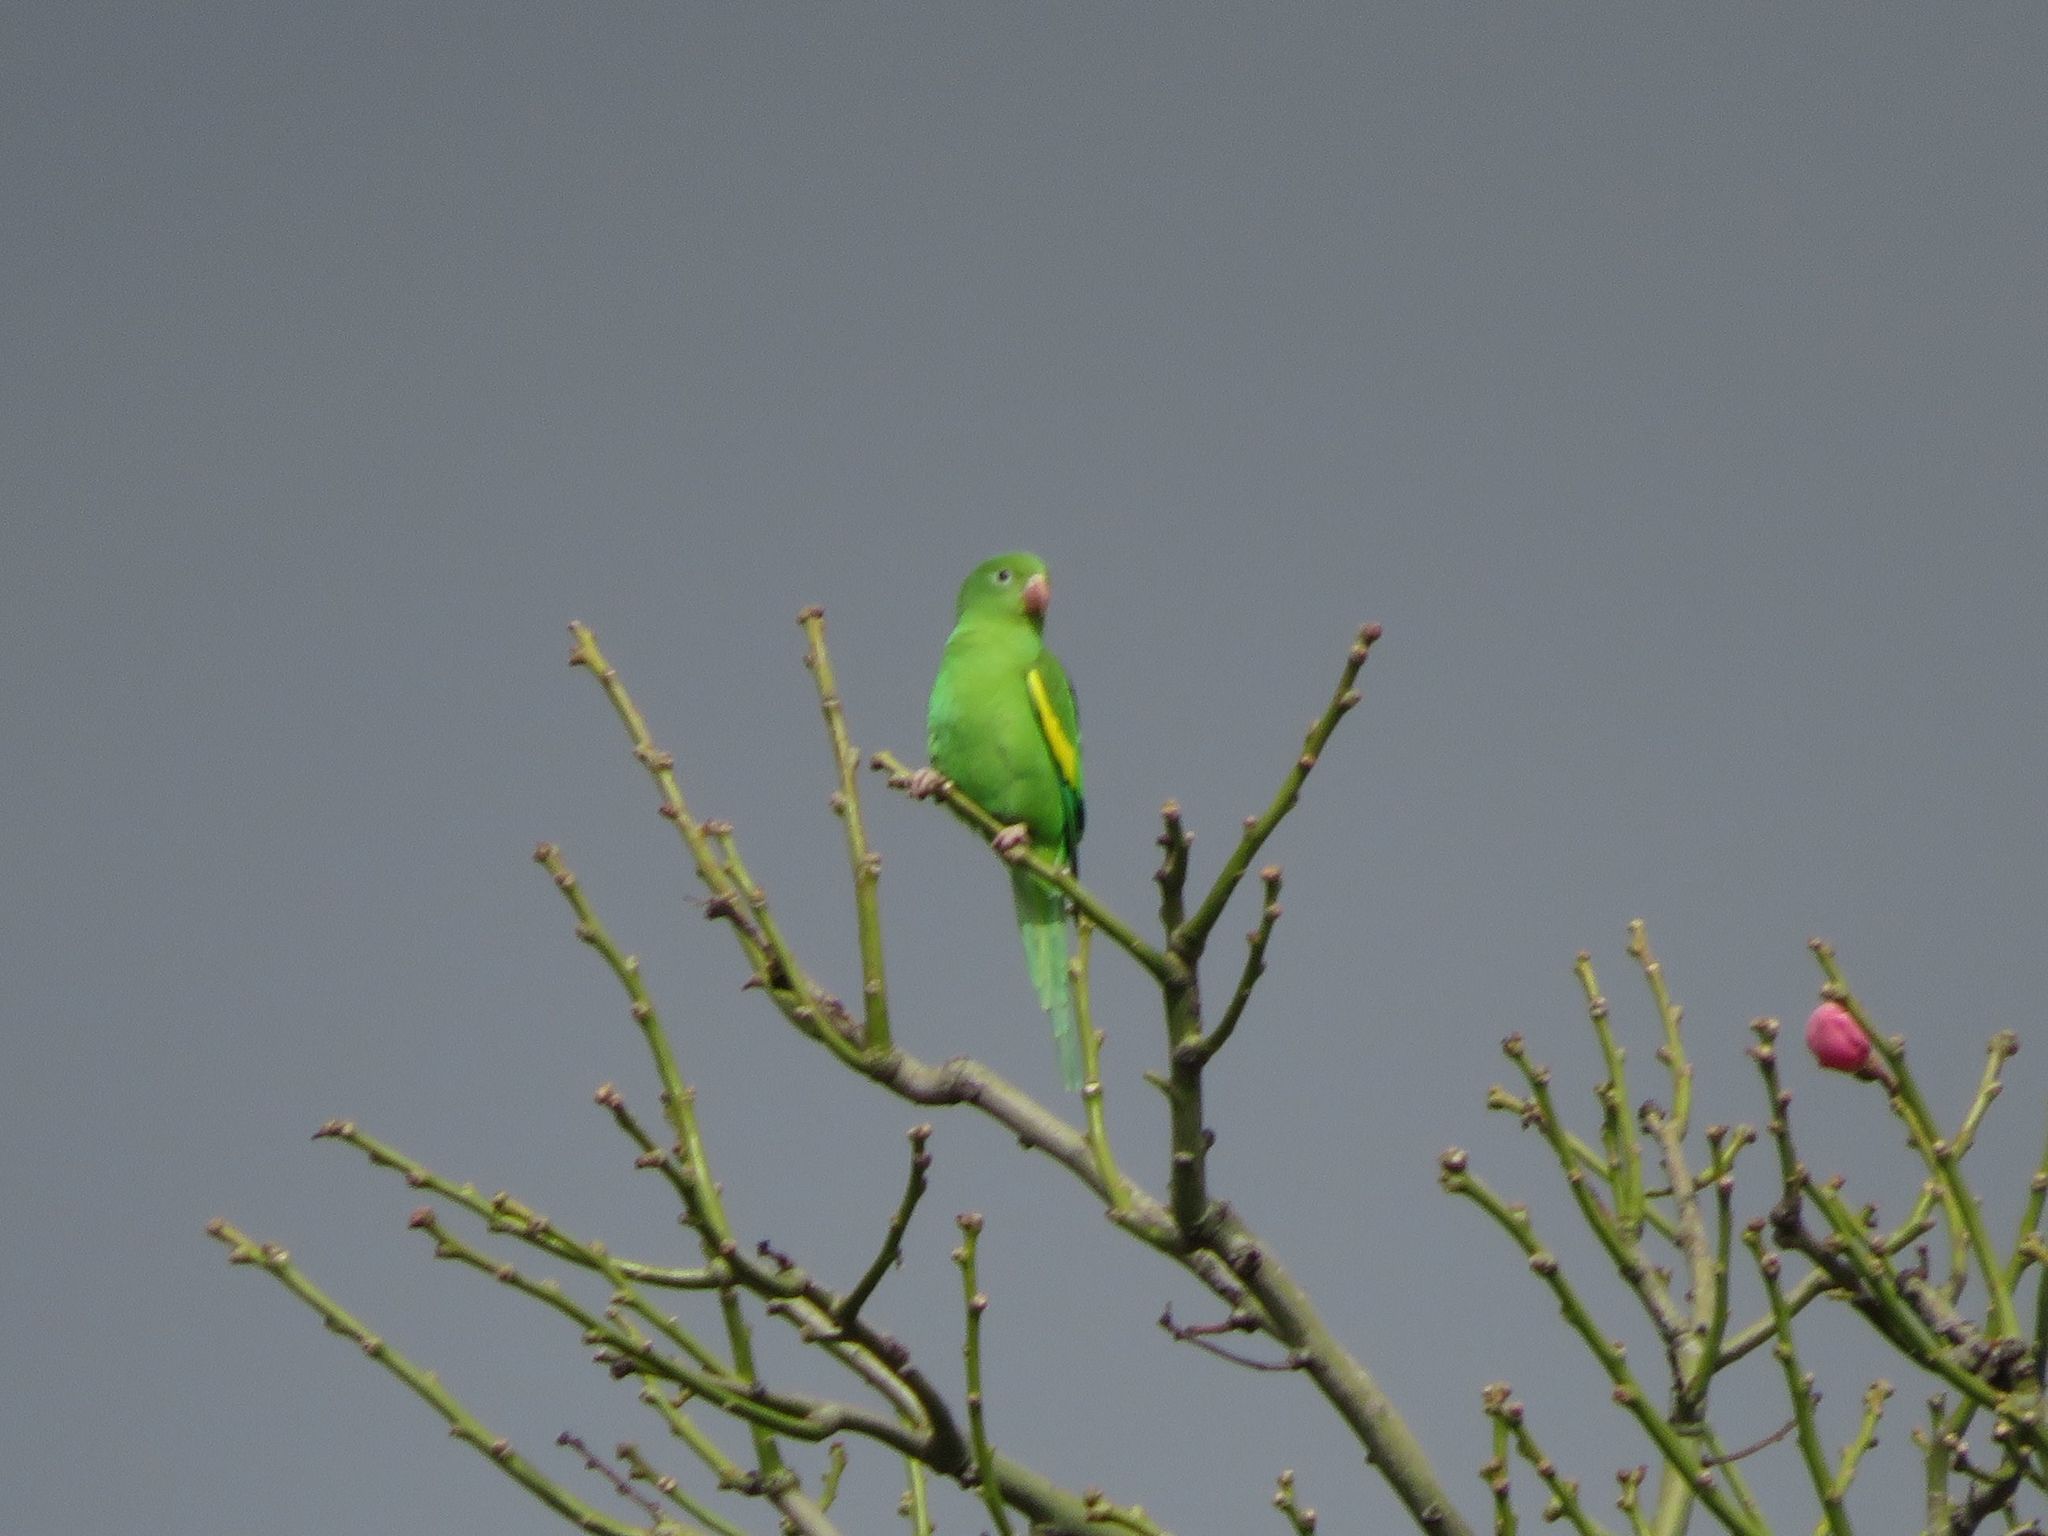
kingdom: Animalia
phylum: Chordata
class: Aves
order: Psittaciformes
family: Psittacidae
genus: Brotogeris
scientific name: Brotogeris chiriri
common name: Yellow-chevroned parakeet
